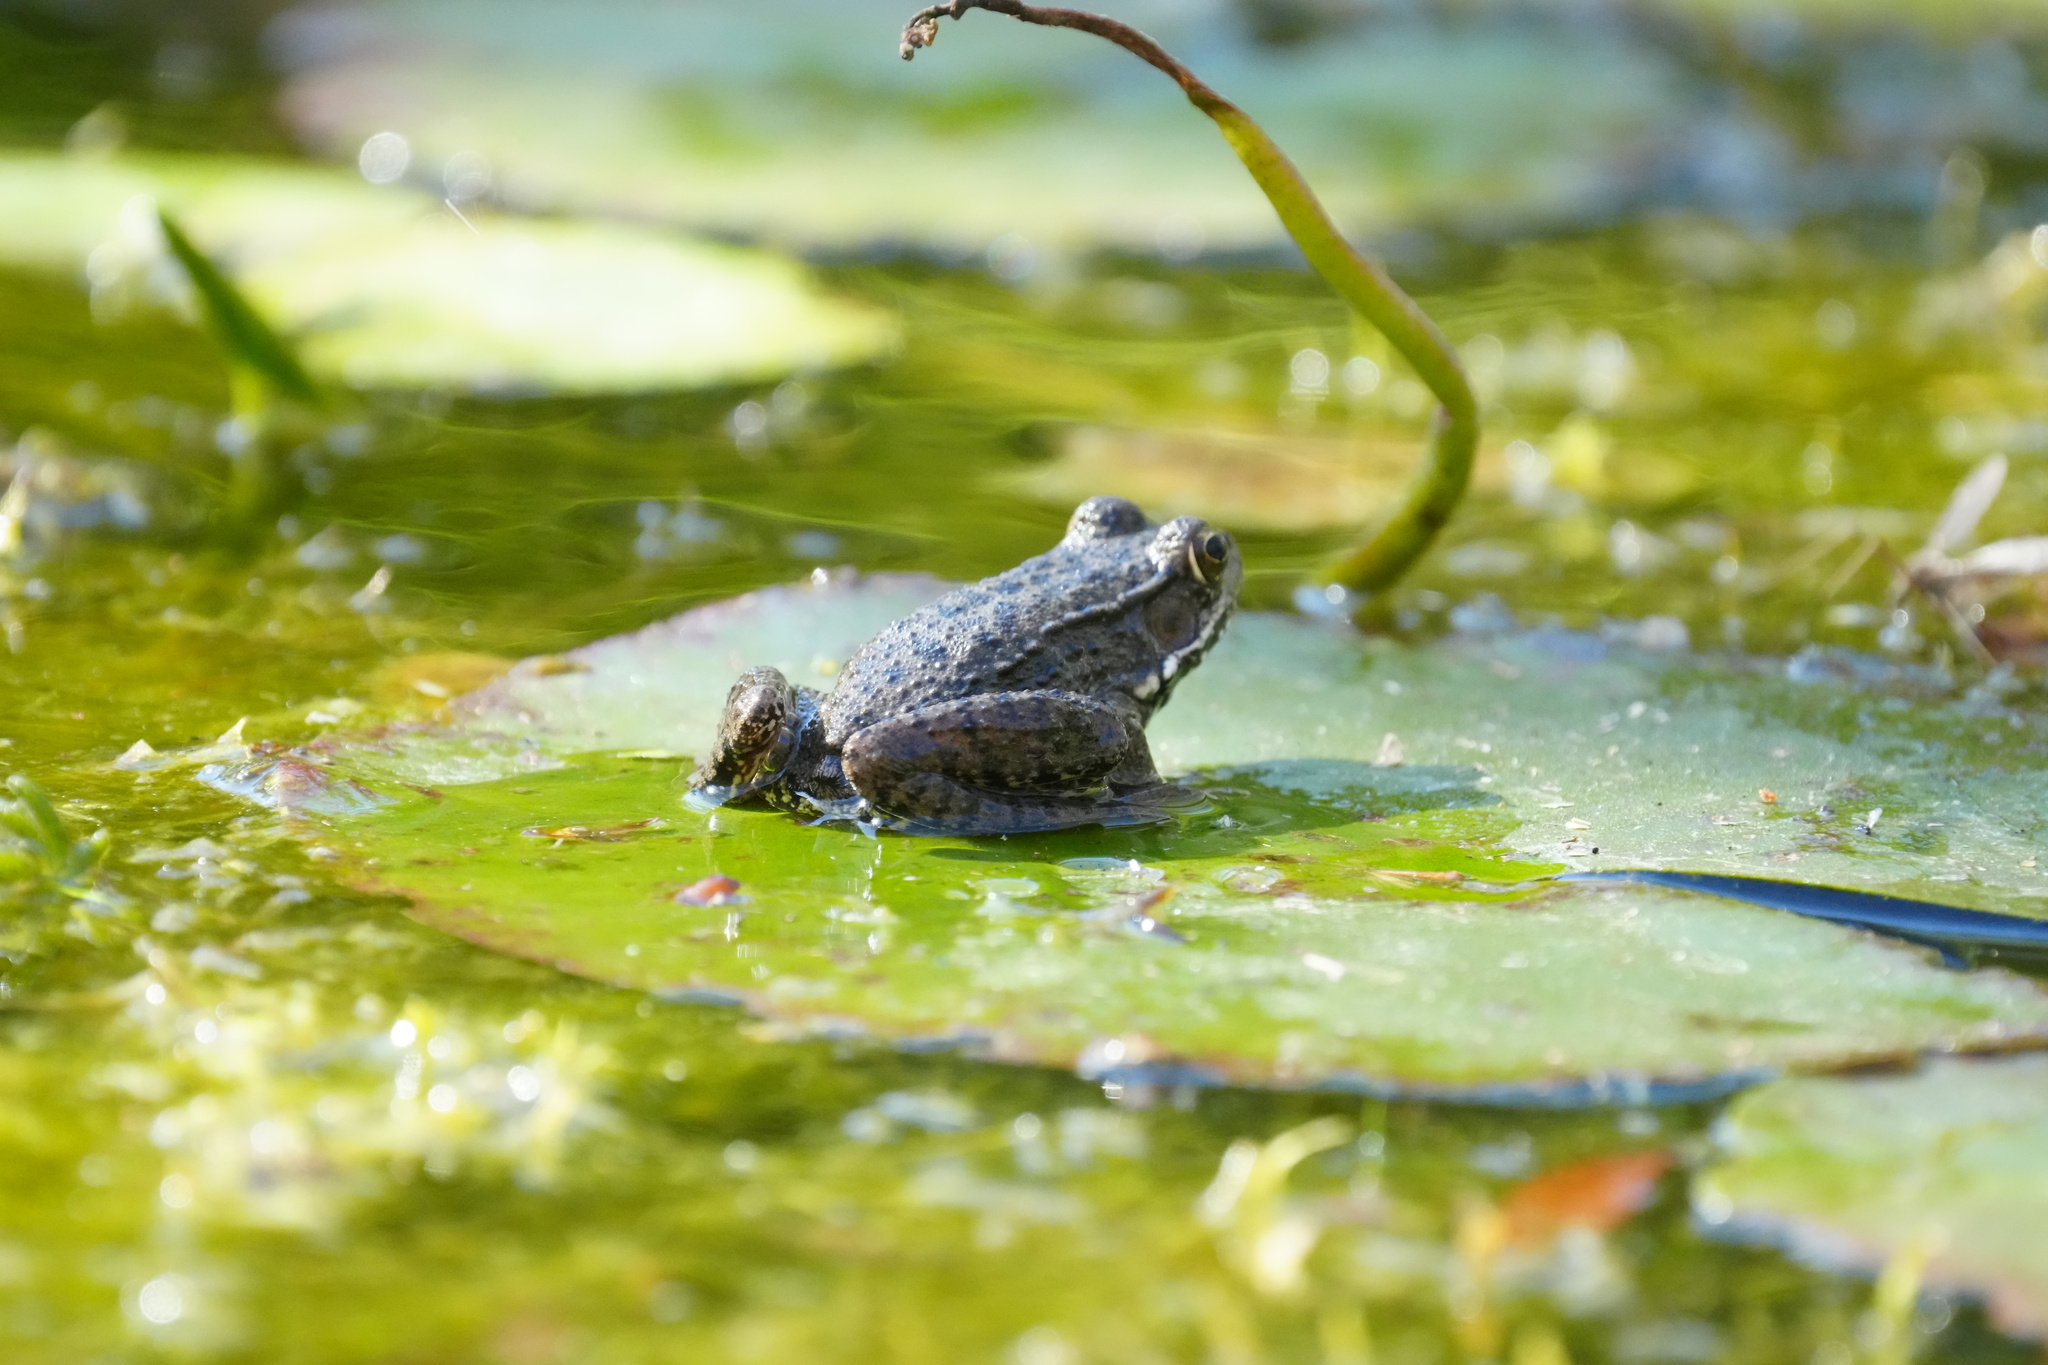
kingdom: Animalia
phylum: Chordata
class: Amphibia
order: Anura
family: Ranidae
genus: Lithobates
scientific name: Lithobates clamitans
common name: Green frog
